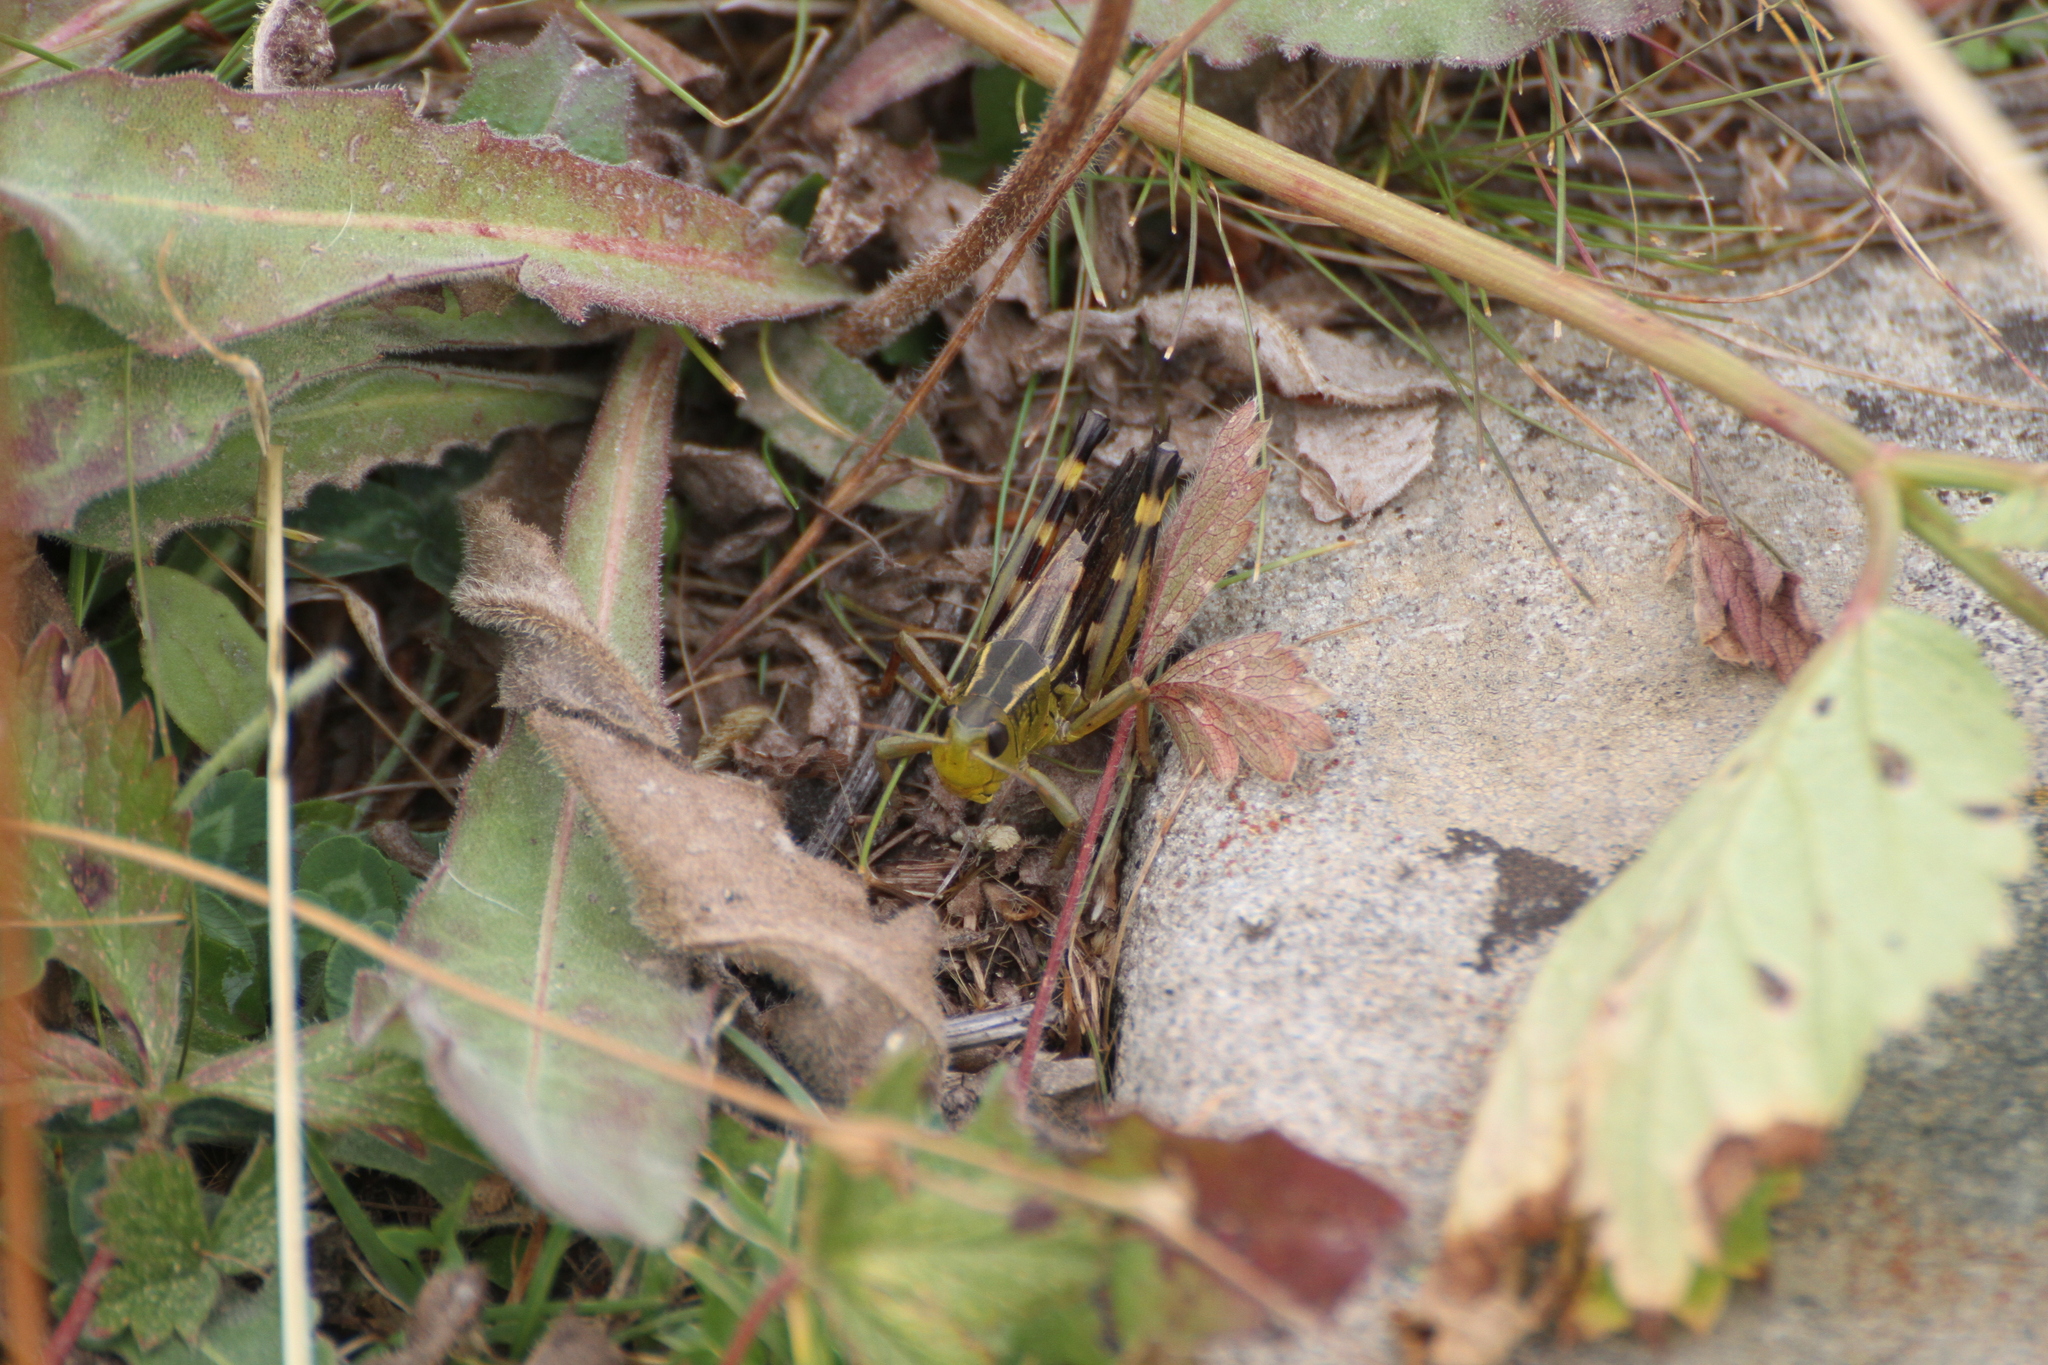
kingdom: Animalia
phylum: Arthropoda
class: Insecta
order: Orthoptera
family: Acrididae
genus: Arcyptera
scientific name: Arcyptera fusca
